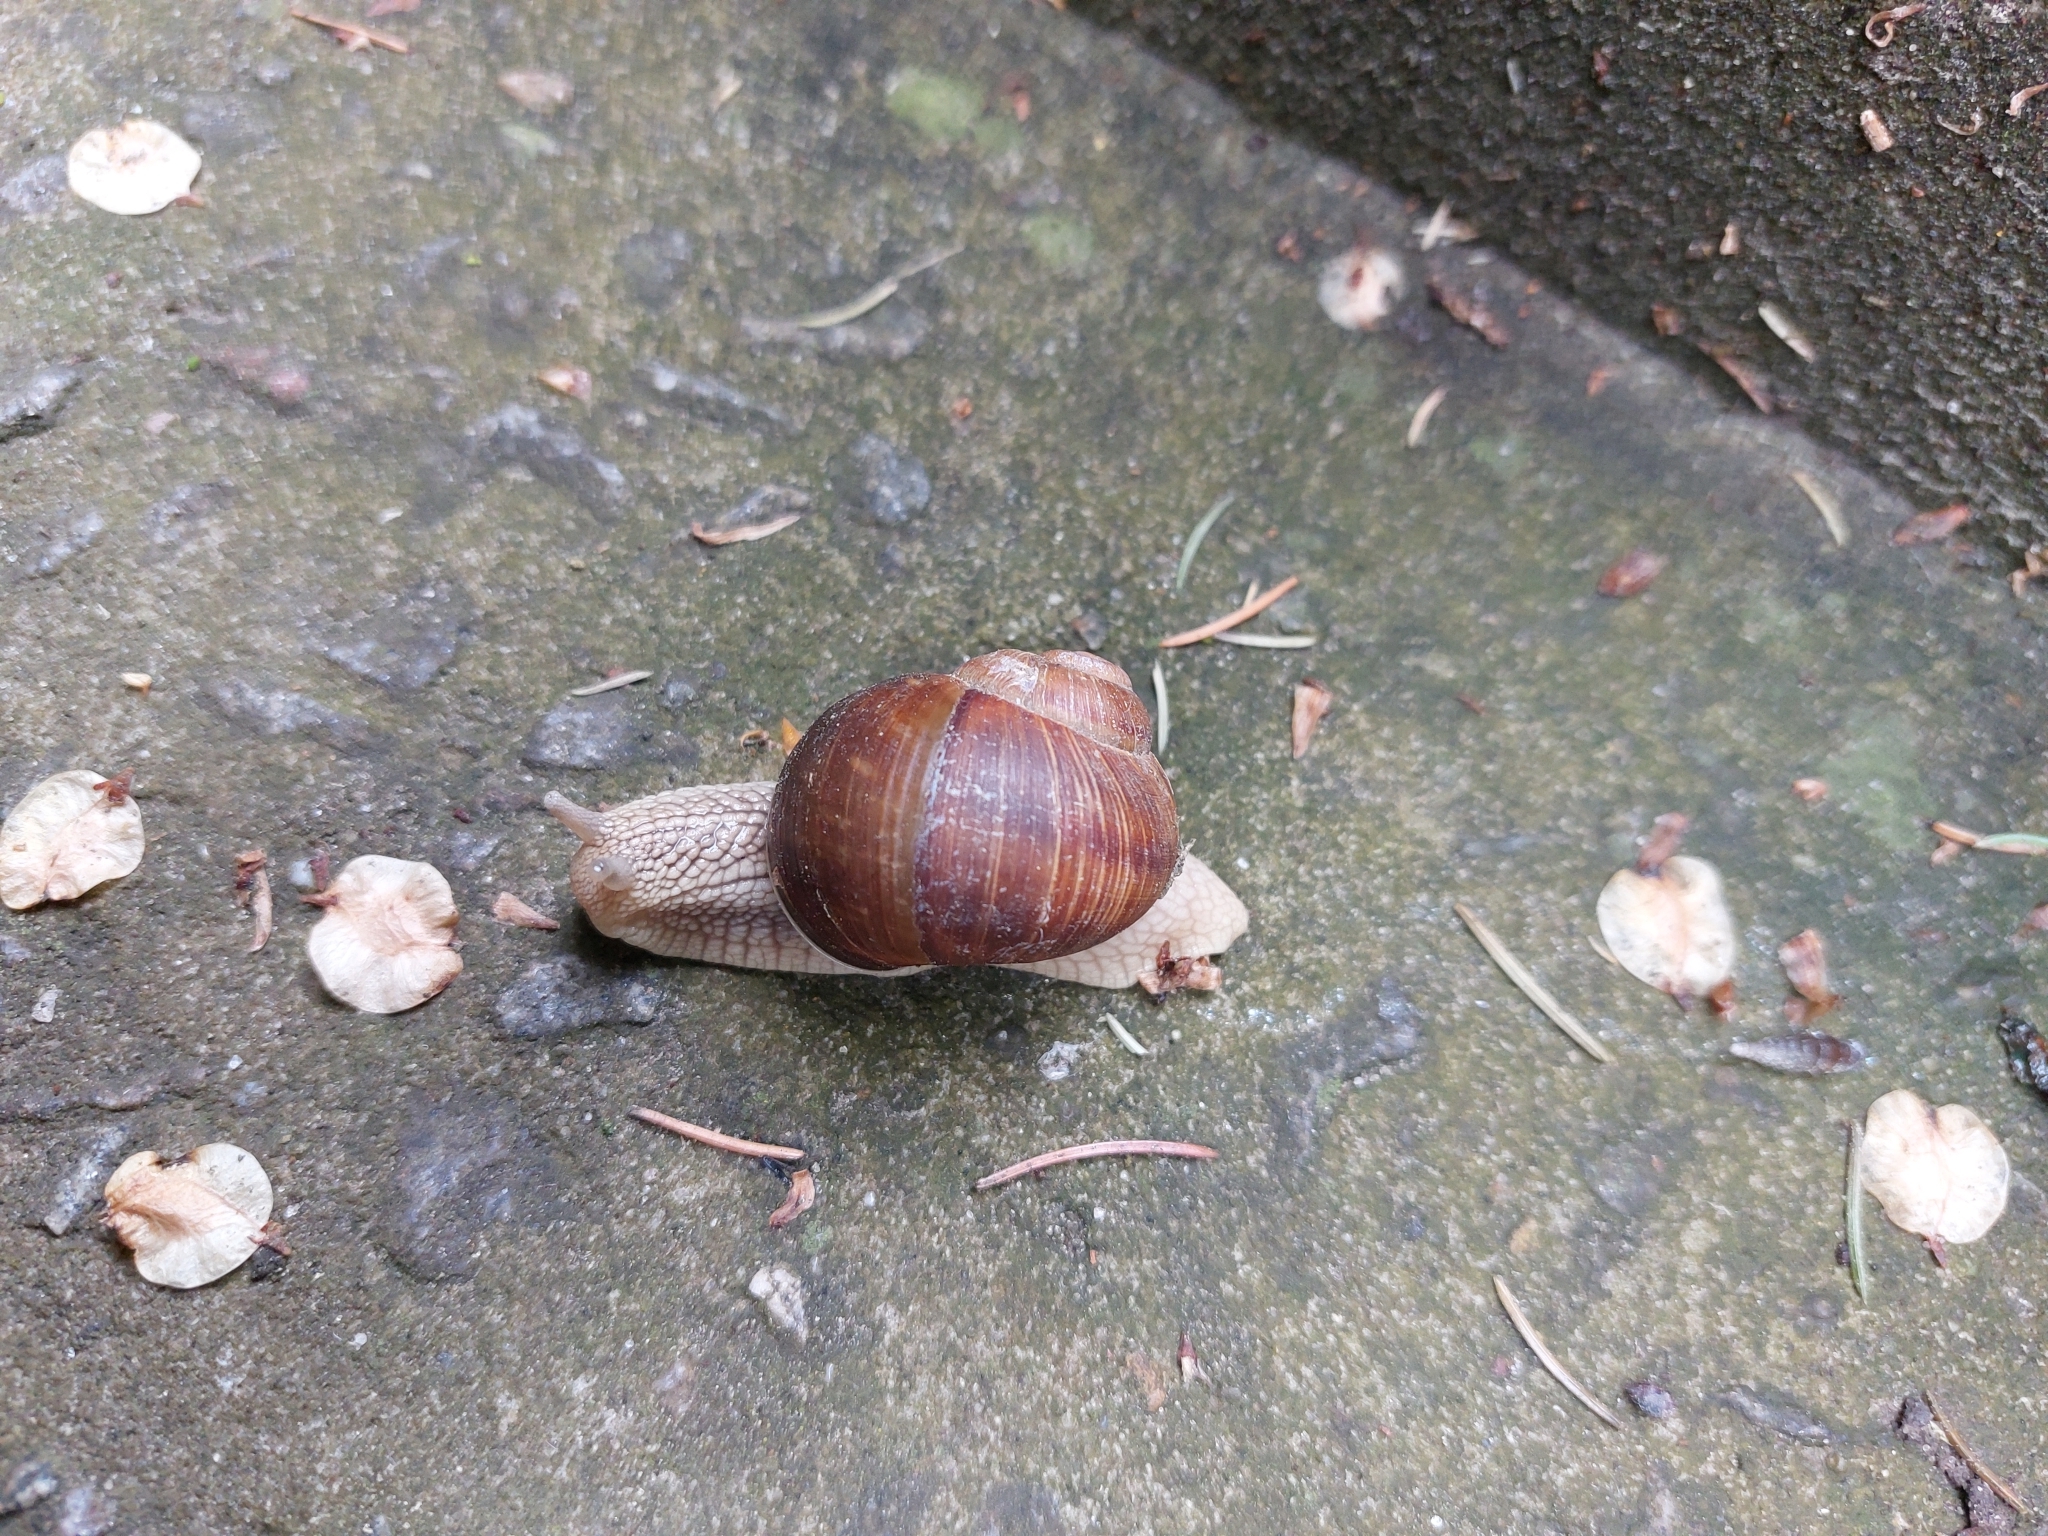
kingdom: Animalia
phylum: Mollusca
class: Gastropoda
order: Stylommatophora
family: Helicidae
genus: Helix
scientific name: Helix pomatia
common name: Roman snail
